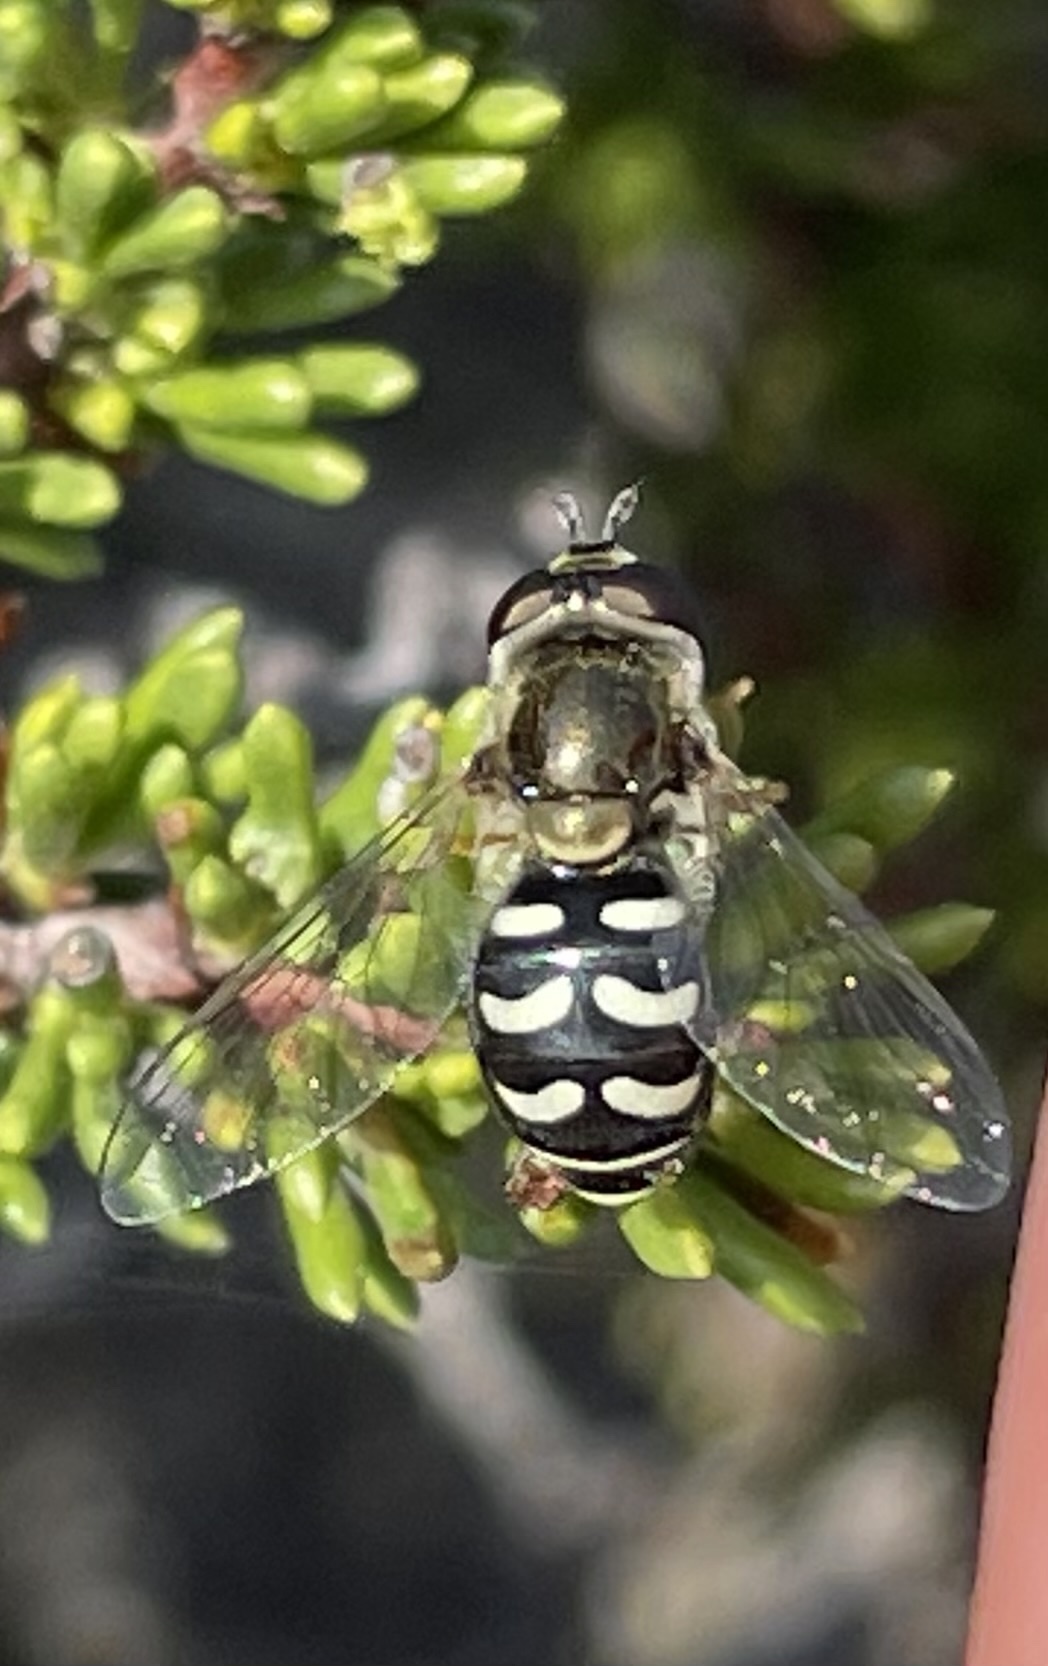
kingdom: Animalia
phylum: Arthropoda
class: Insecta
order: Diptera
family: Syrphidae
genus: Eupeodes
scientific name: Eupeodes volucris
